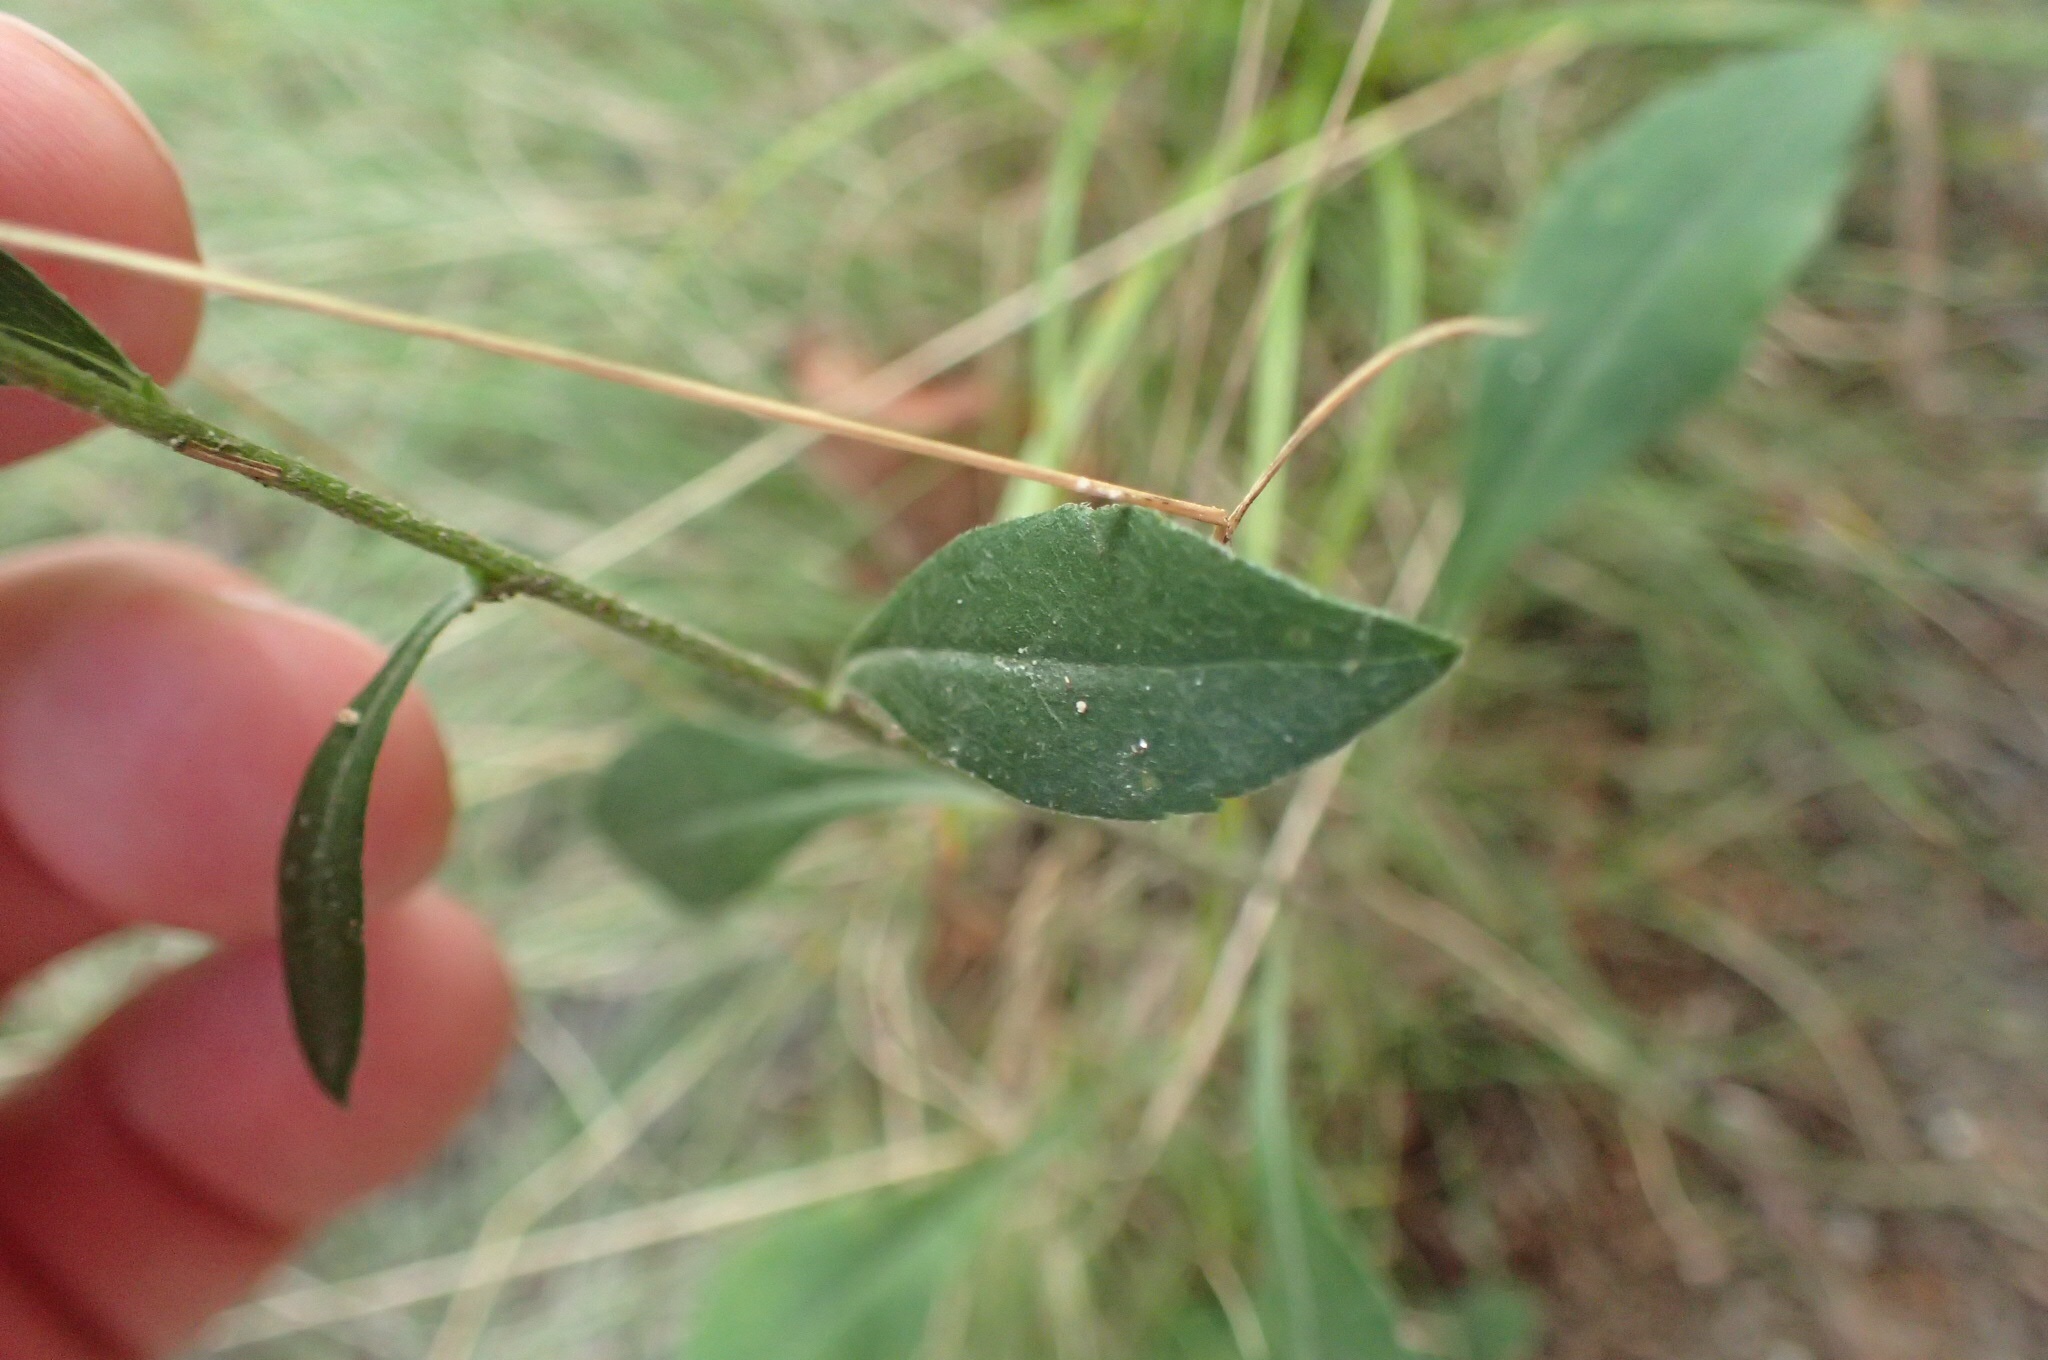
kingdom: Plantae
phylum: Tracheophyta
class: Magnoliopsida
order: Asterales
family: Asteraceae
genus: Solidago
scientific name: Solidago bicolor
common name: Silverrod
